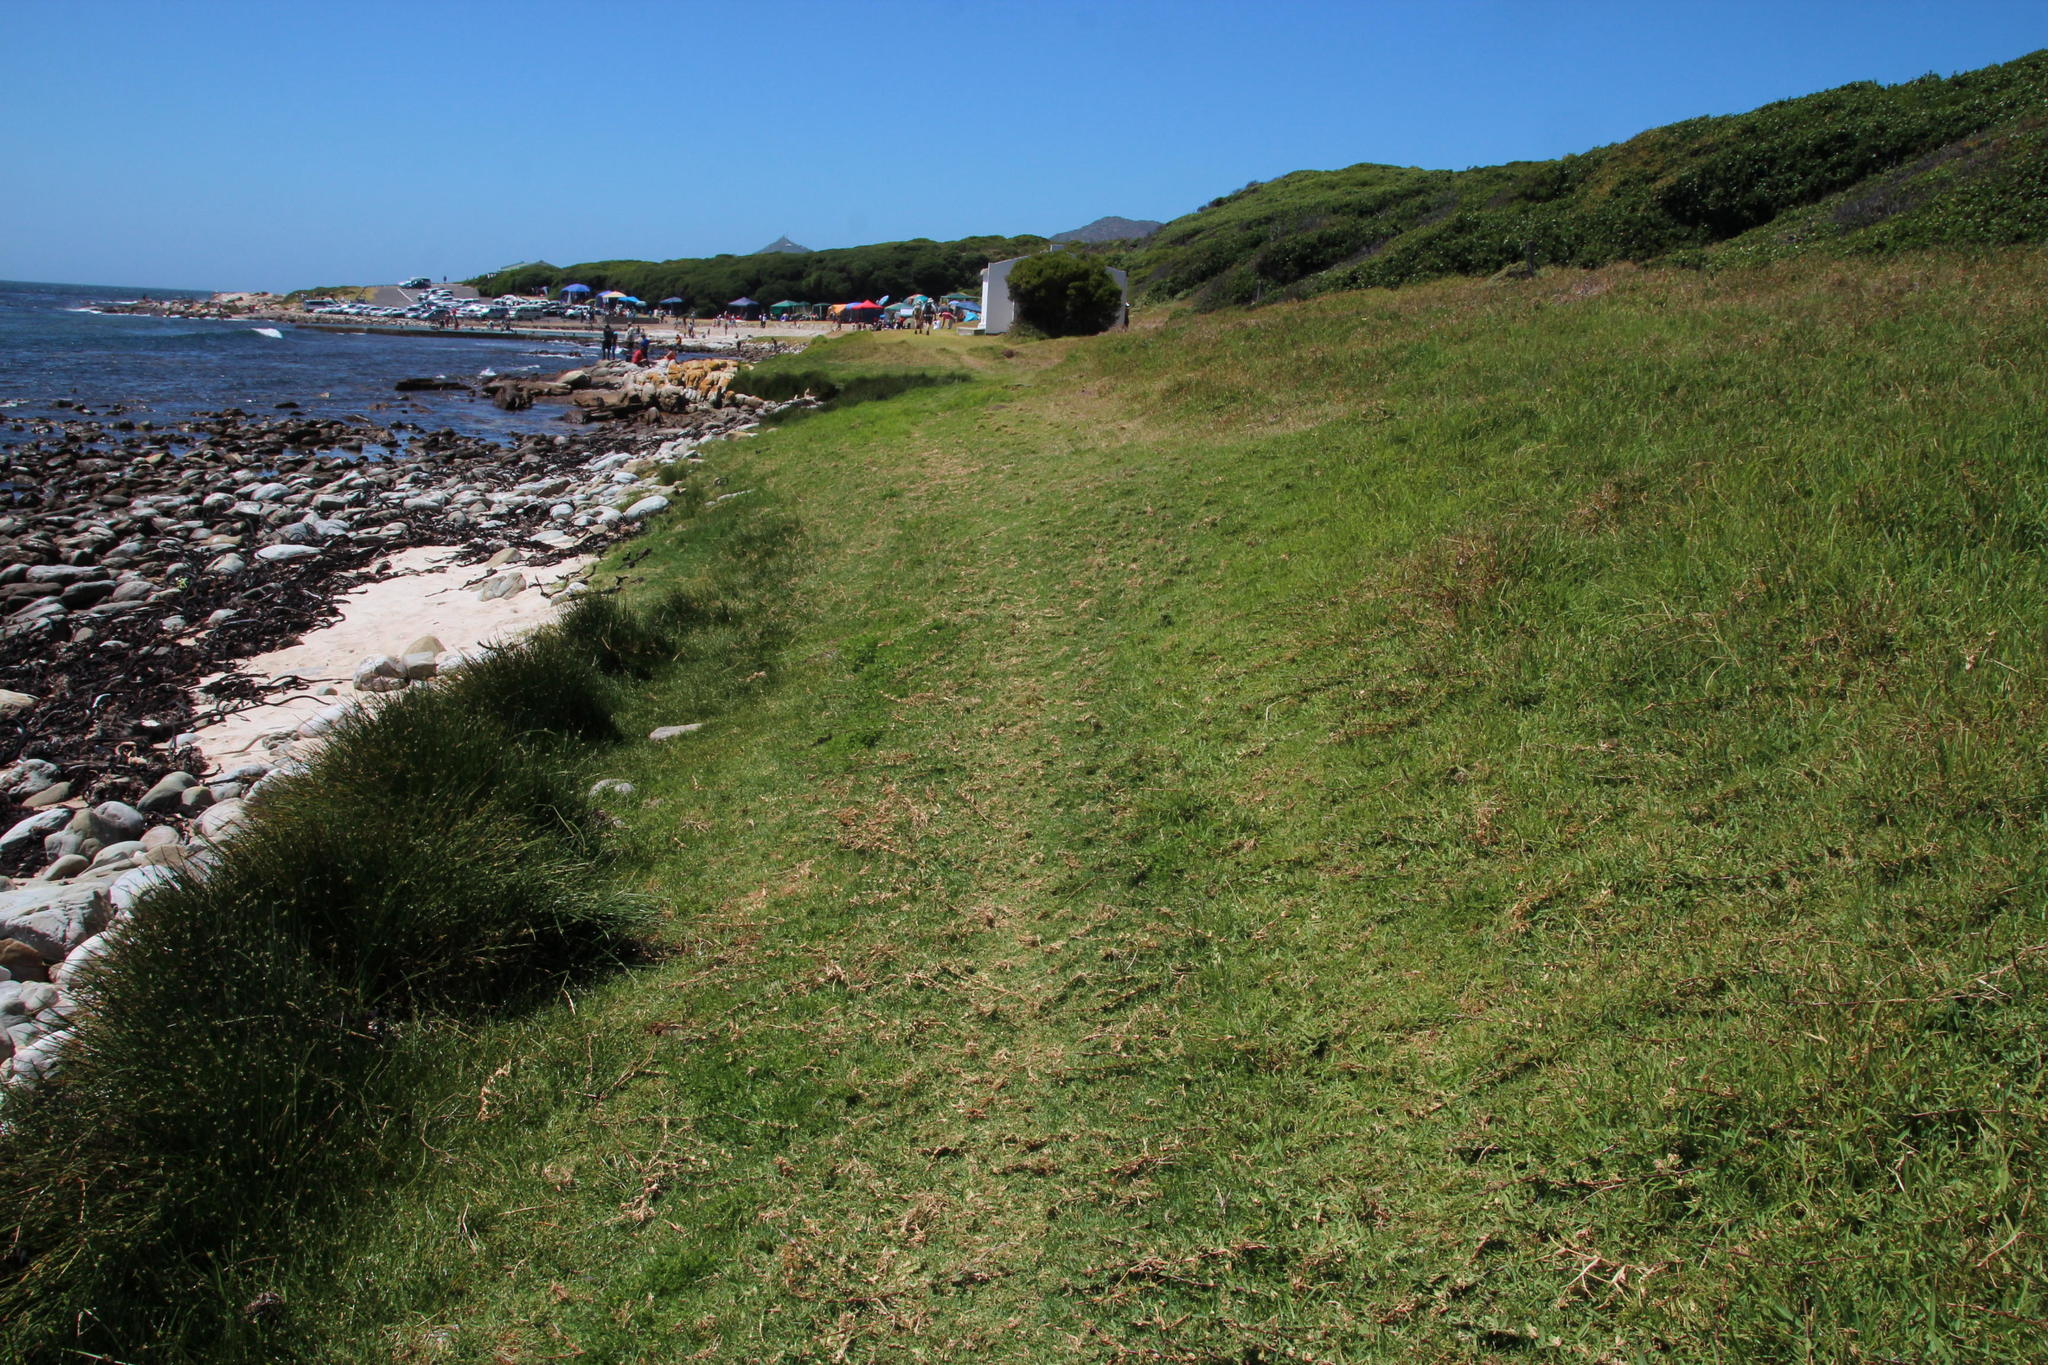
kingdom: Plantae
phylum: Tracheophyta
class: Liliopsida
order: Poales
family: Poaceae
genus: Stenotaphrum
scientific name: Stenotaphrum secundatum
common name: St. augustine grass
